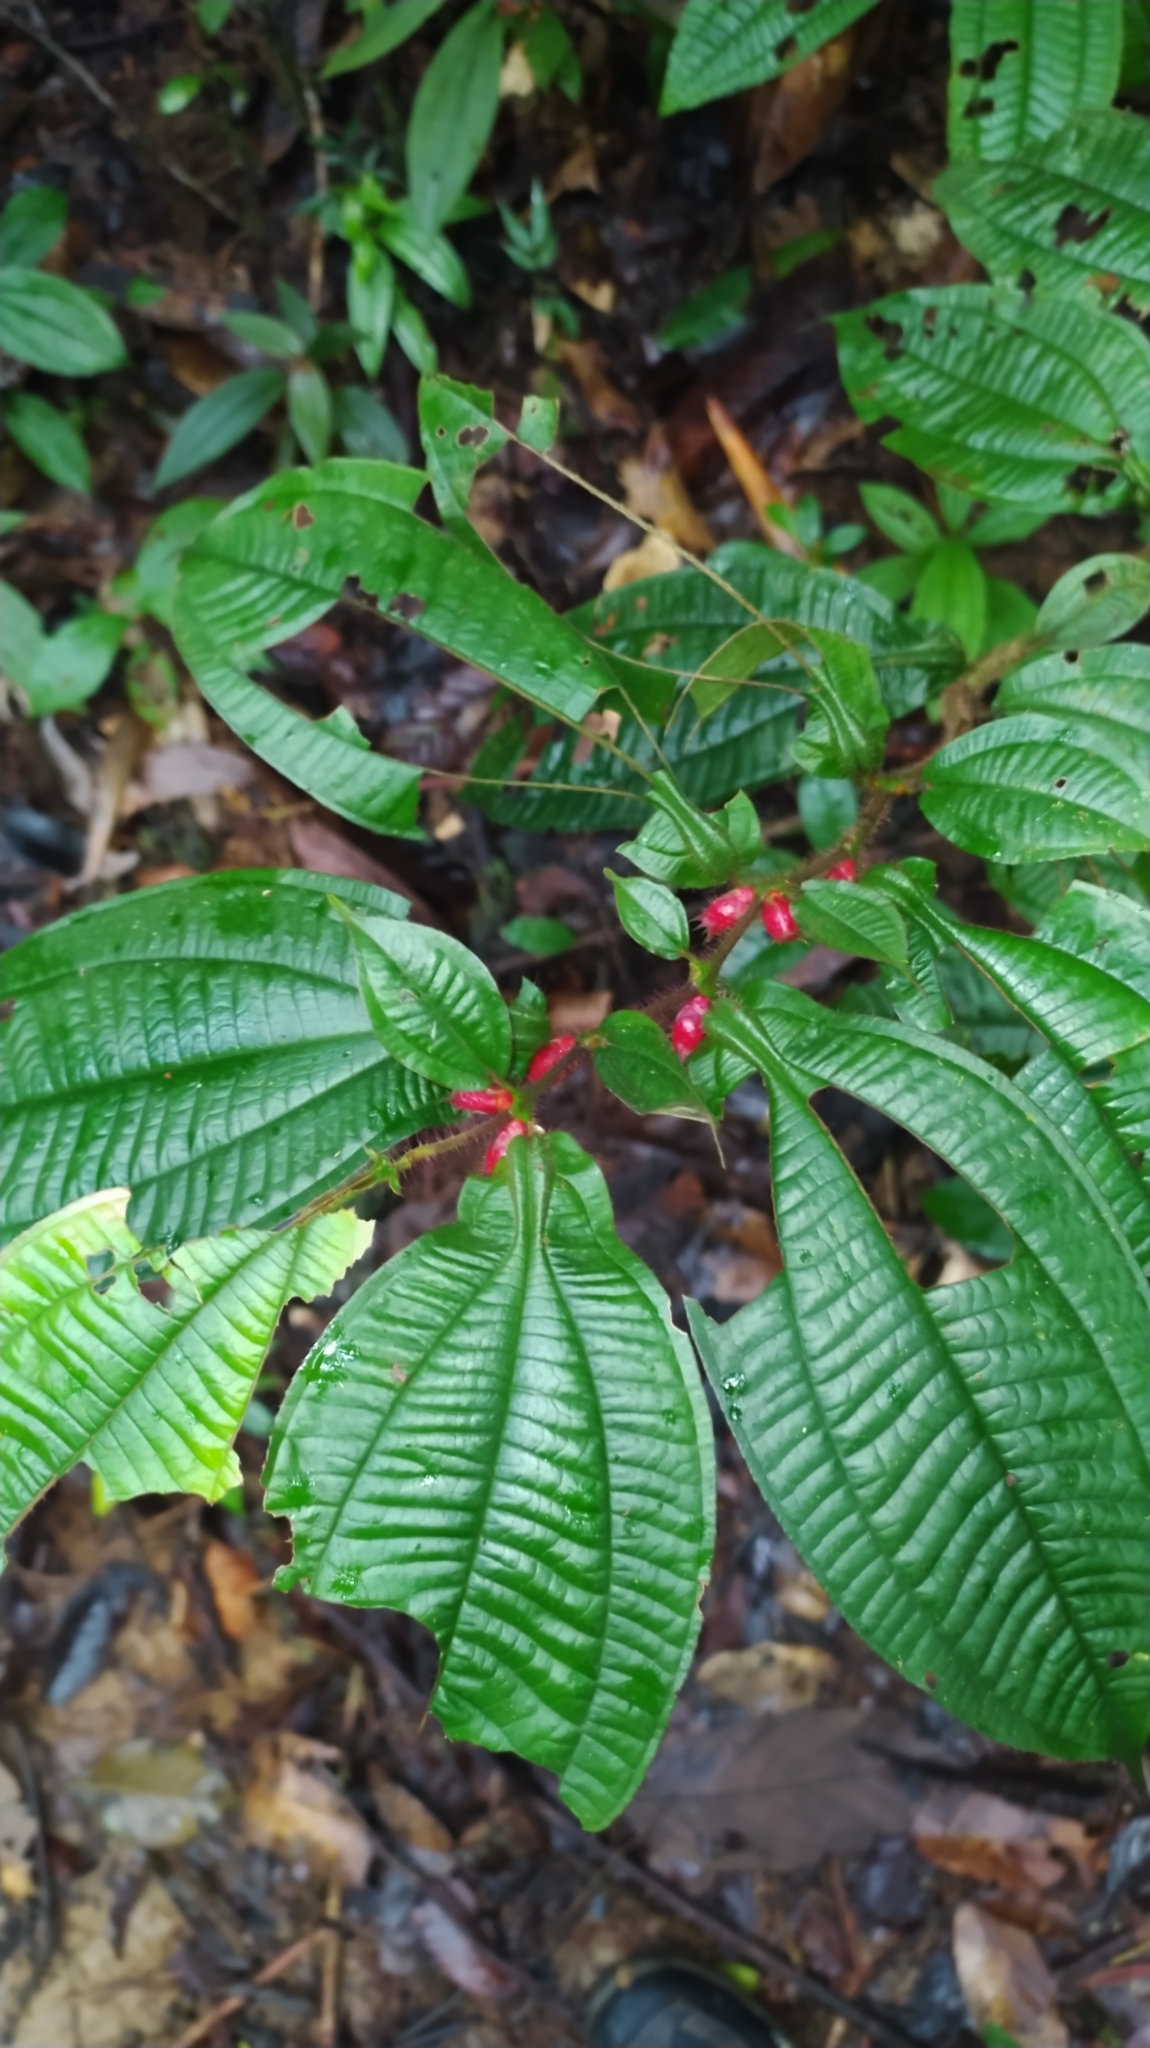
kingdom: Plantae
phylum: Tracheophyta
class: Magnoliopsida
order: Myrtales
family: Melastomataceae
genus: Miconia
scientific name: Miconia mayeta
